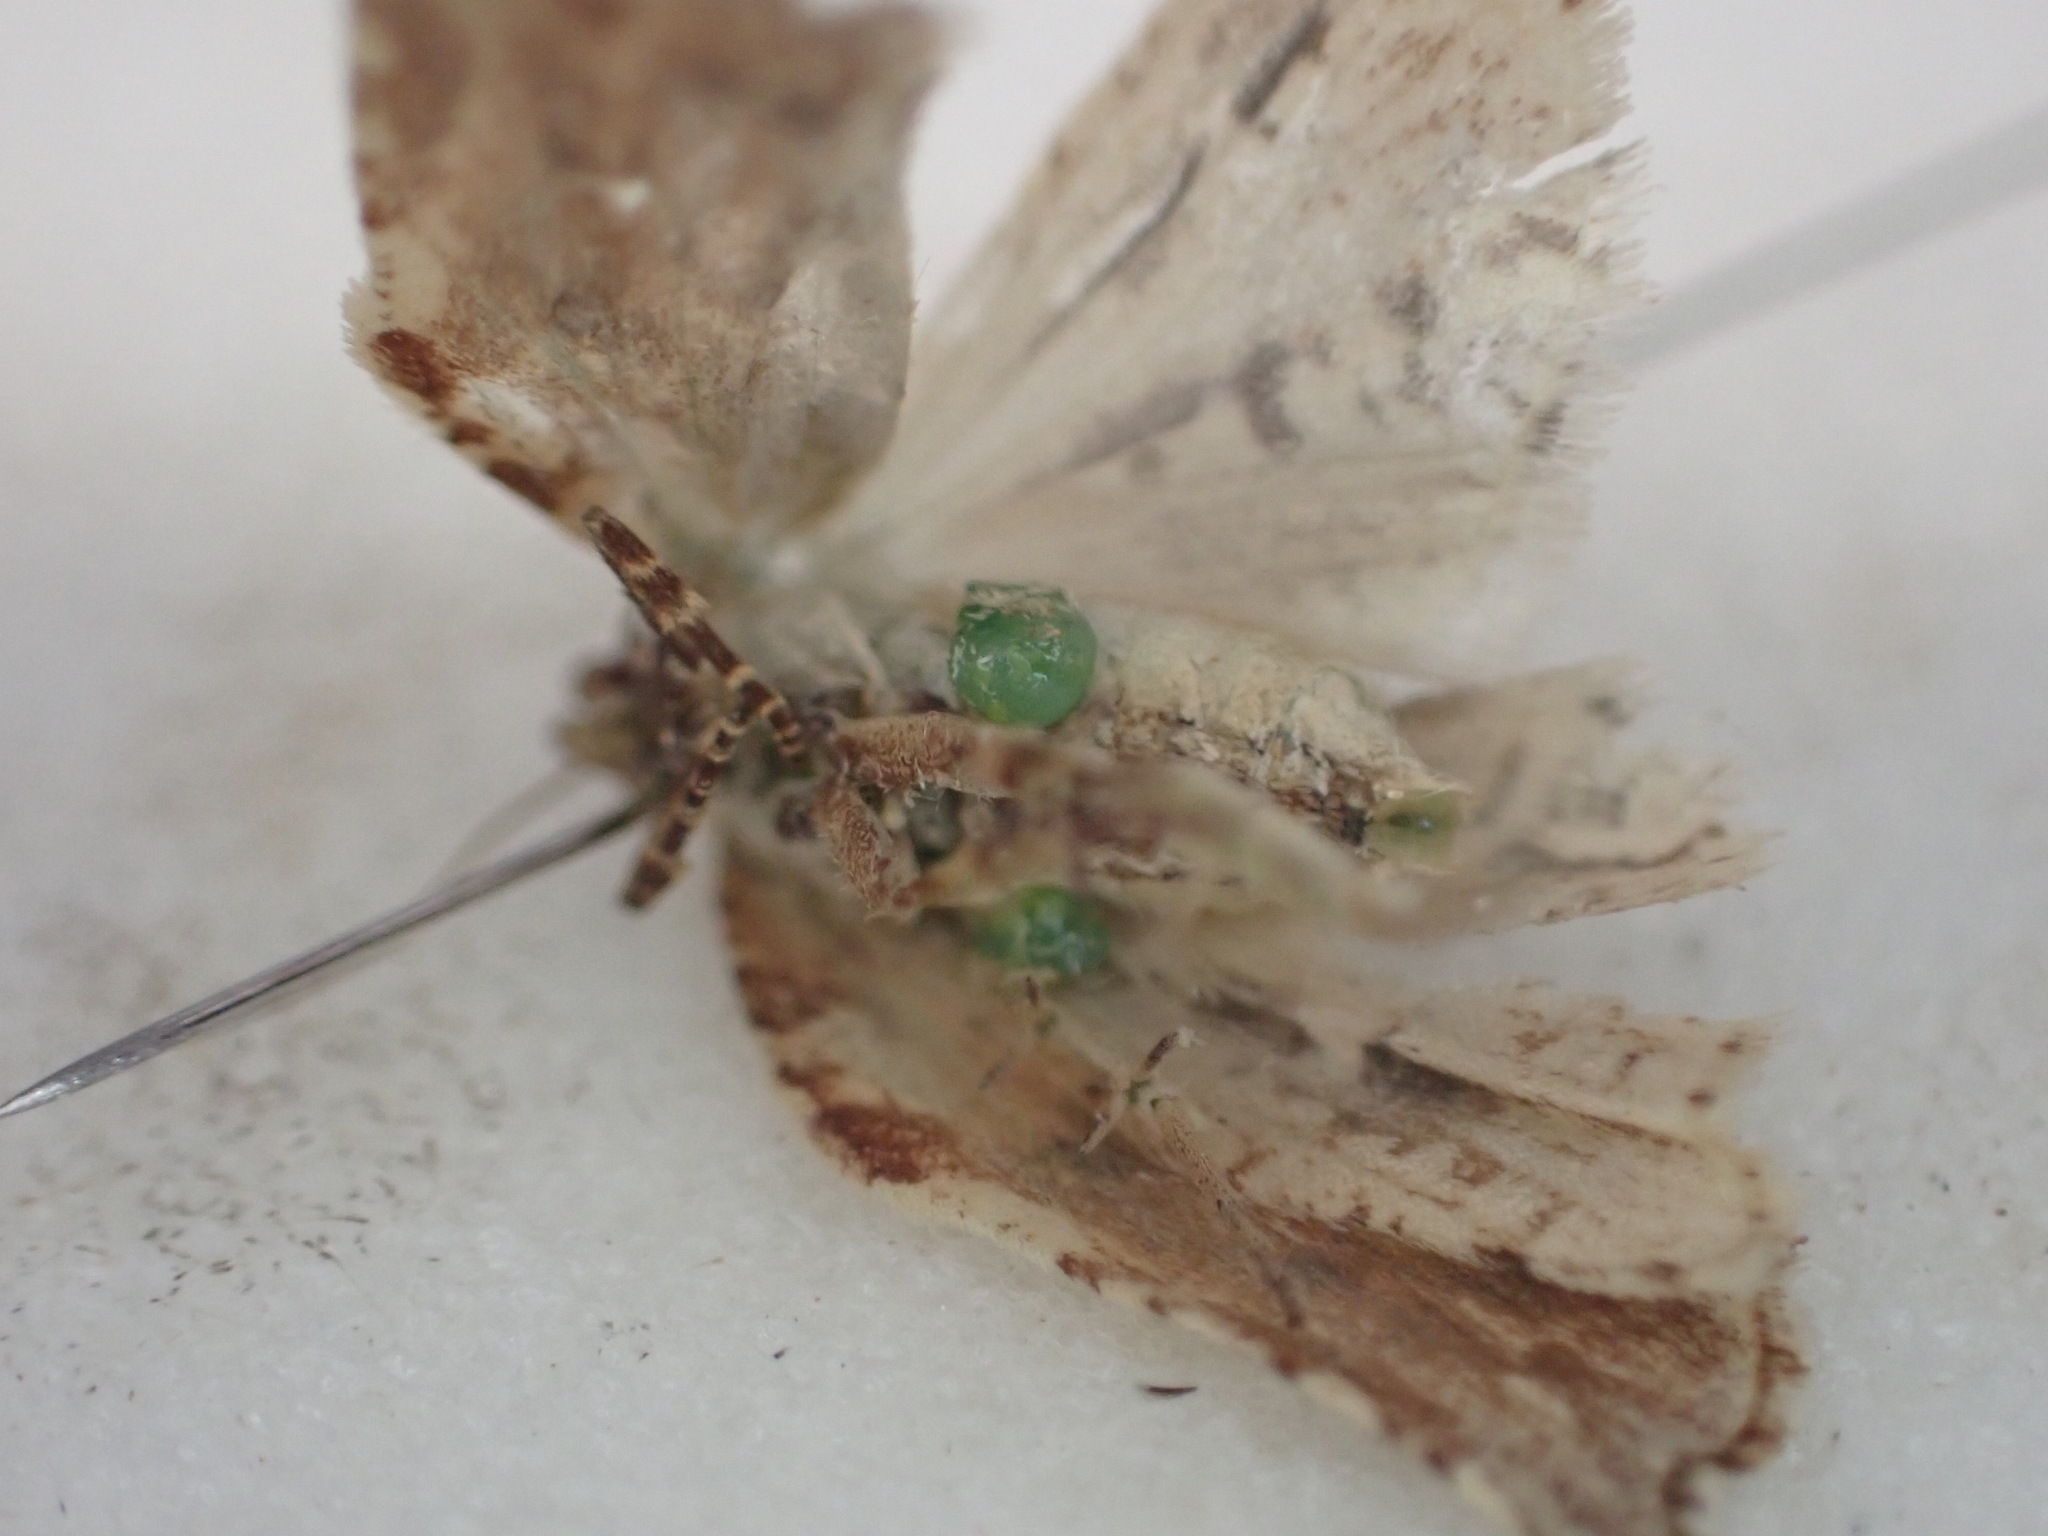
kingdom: Animalia
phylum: Arthropoda
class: Insecta
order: Lepidoptera
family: Tortricidae
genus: Epalxiphora
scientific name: Epalxiphora axenana
